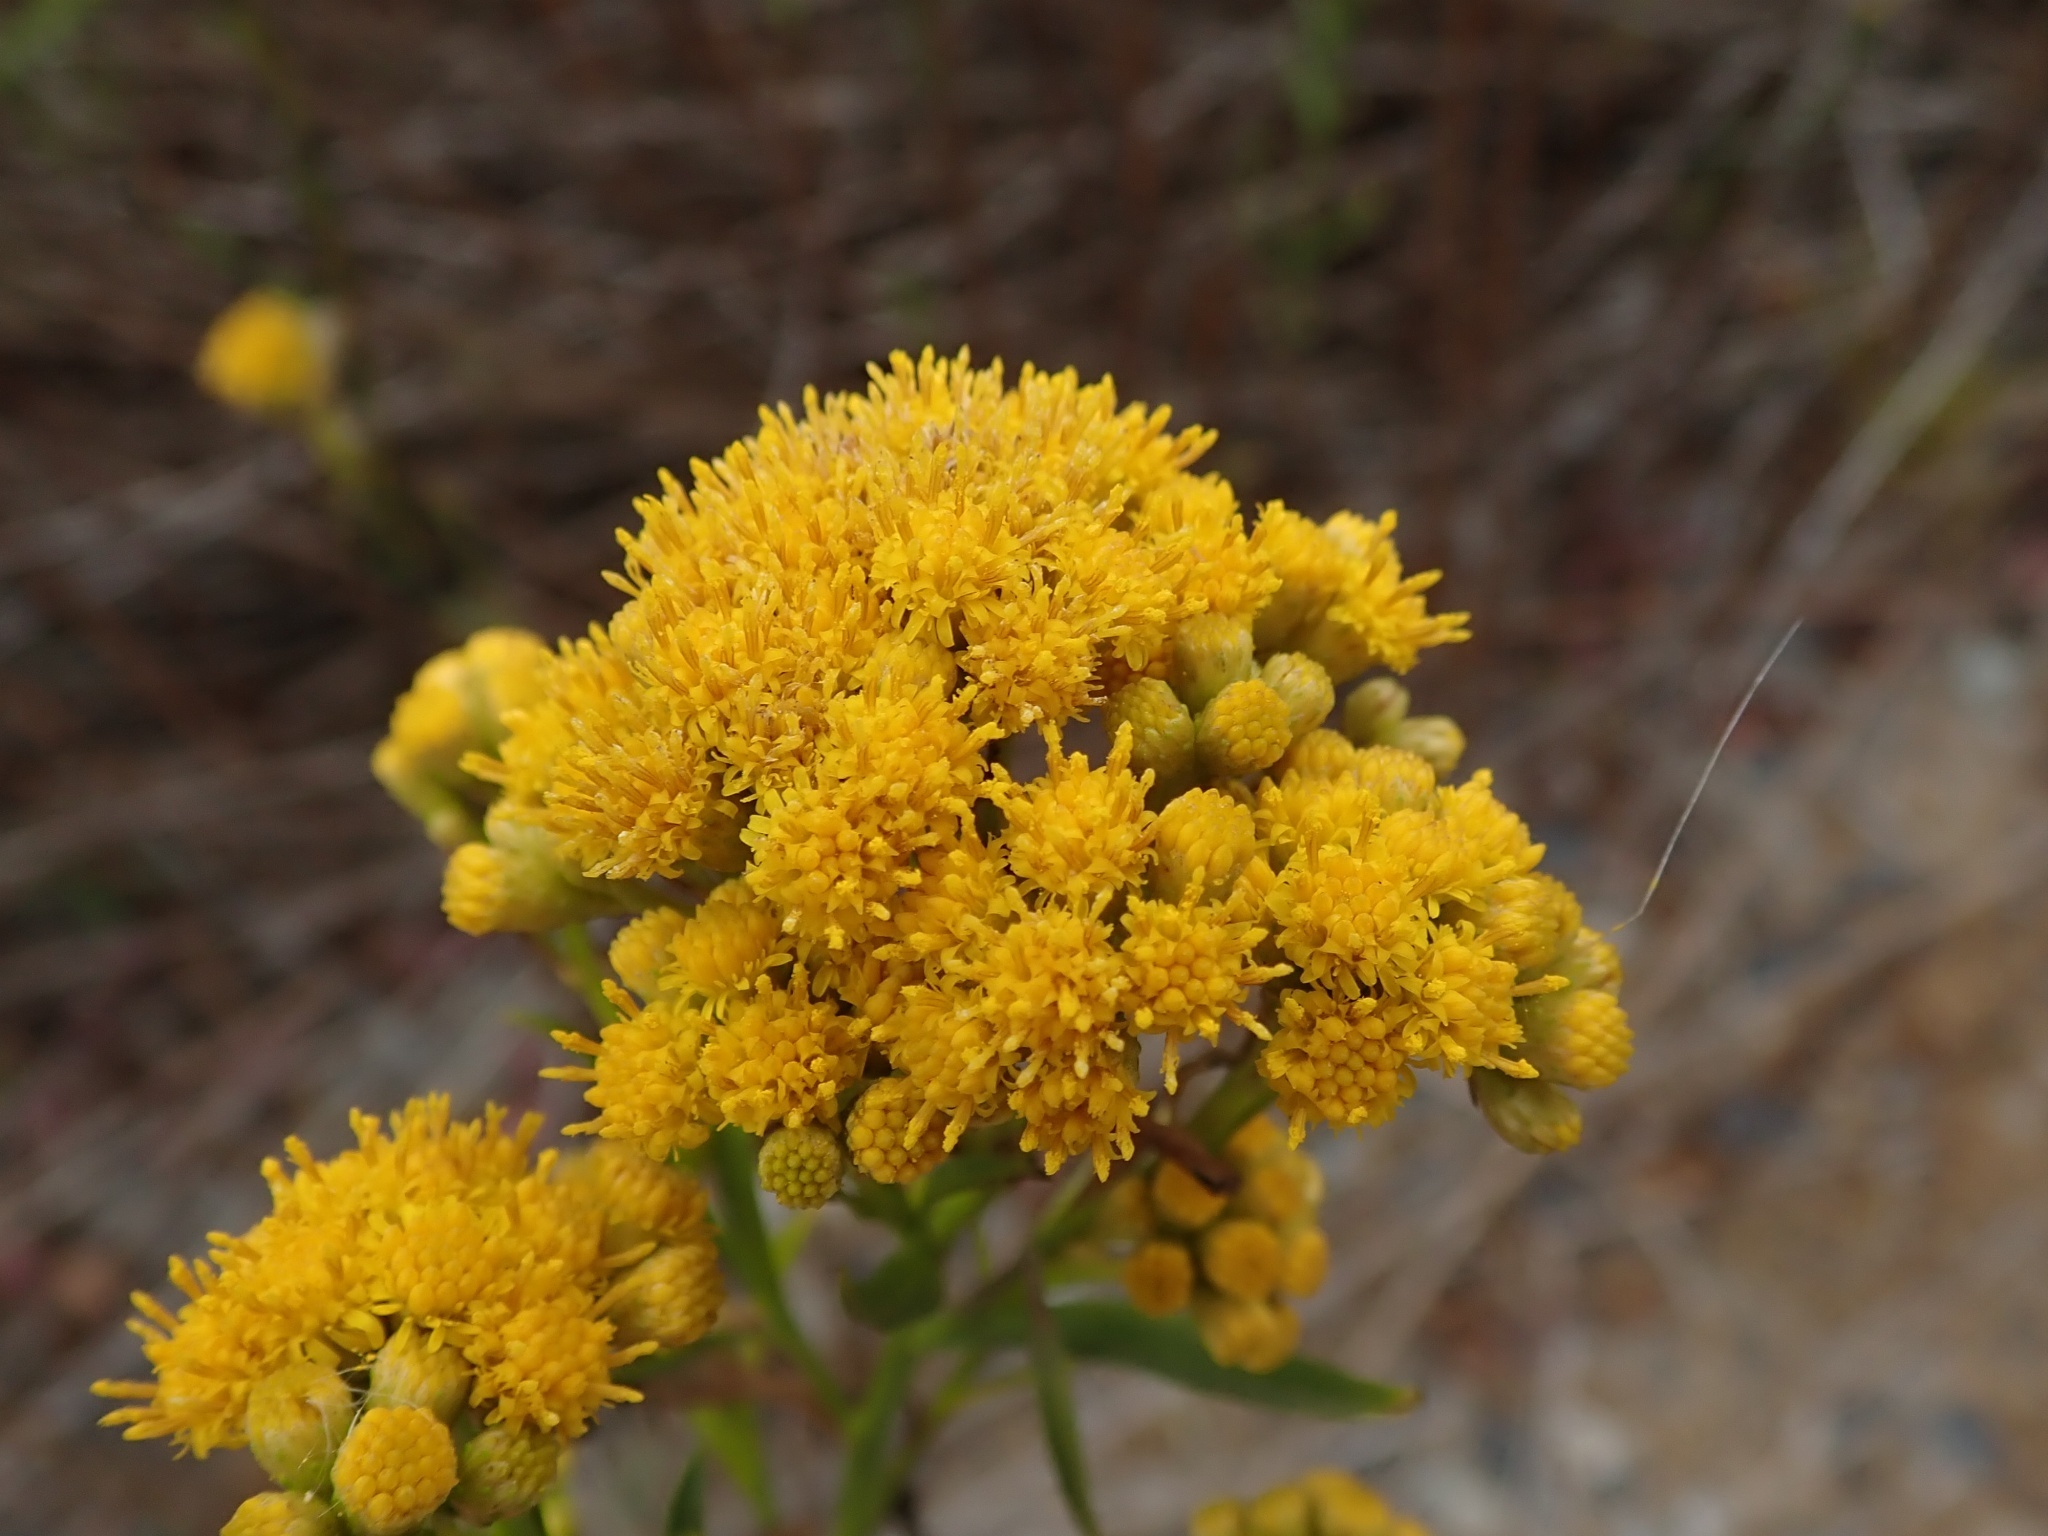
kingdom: Plantae
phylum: Tracheophyta
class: Magnoliopsida
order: Asterales
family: Asteraceae
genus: Euthamia
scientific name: Euthamia occidentalis
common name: Western goldentop
